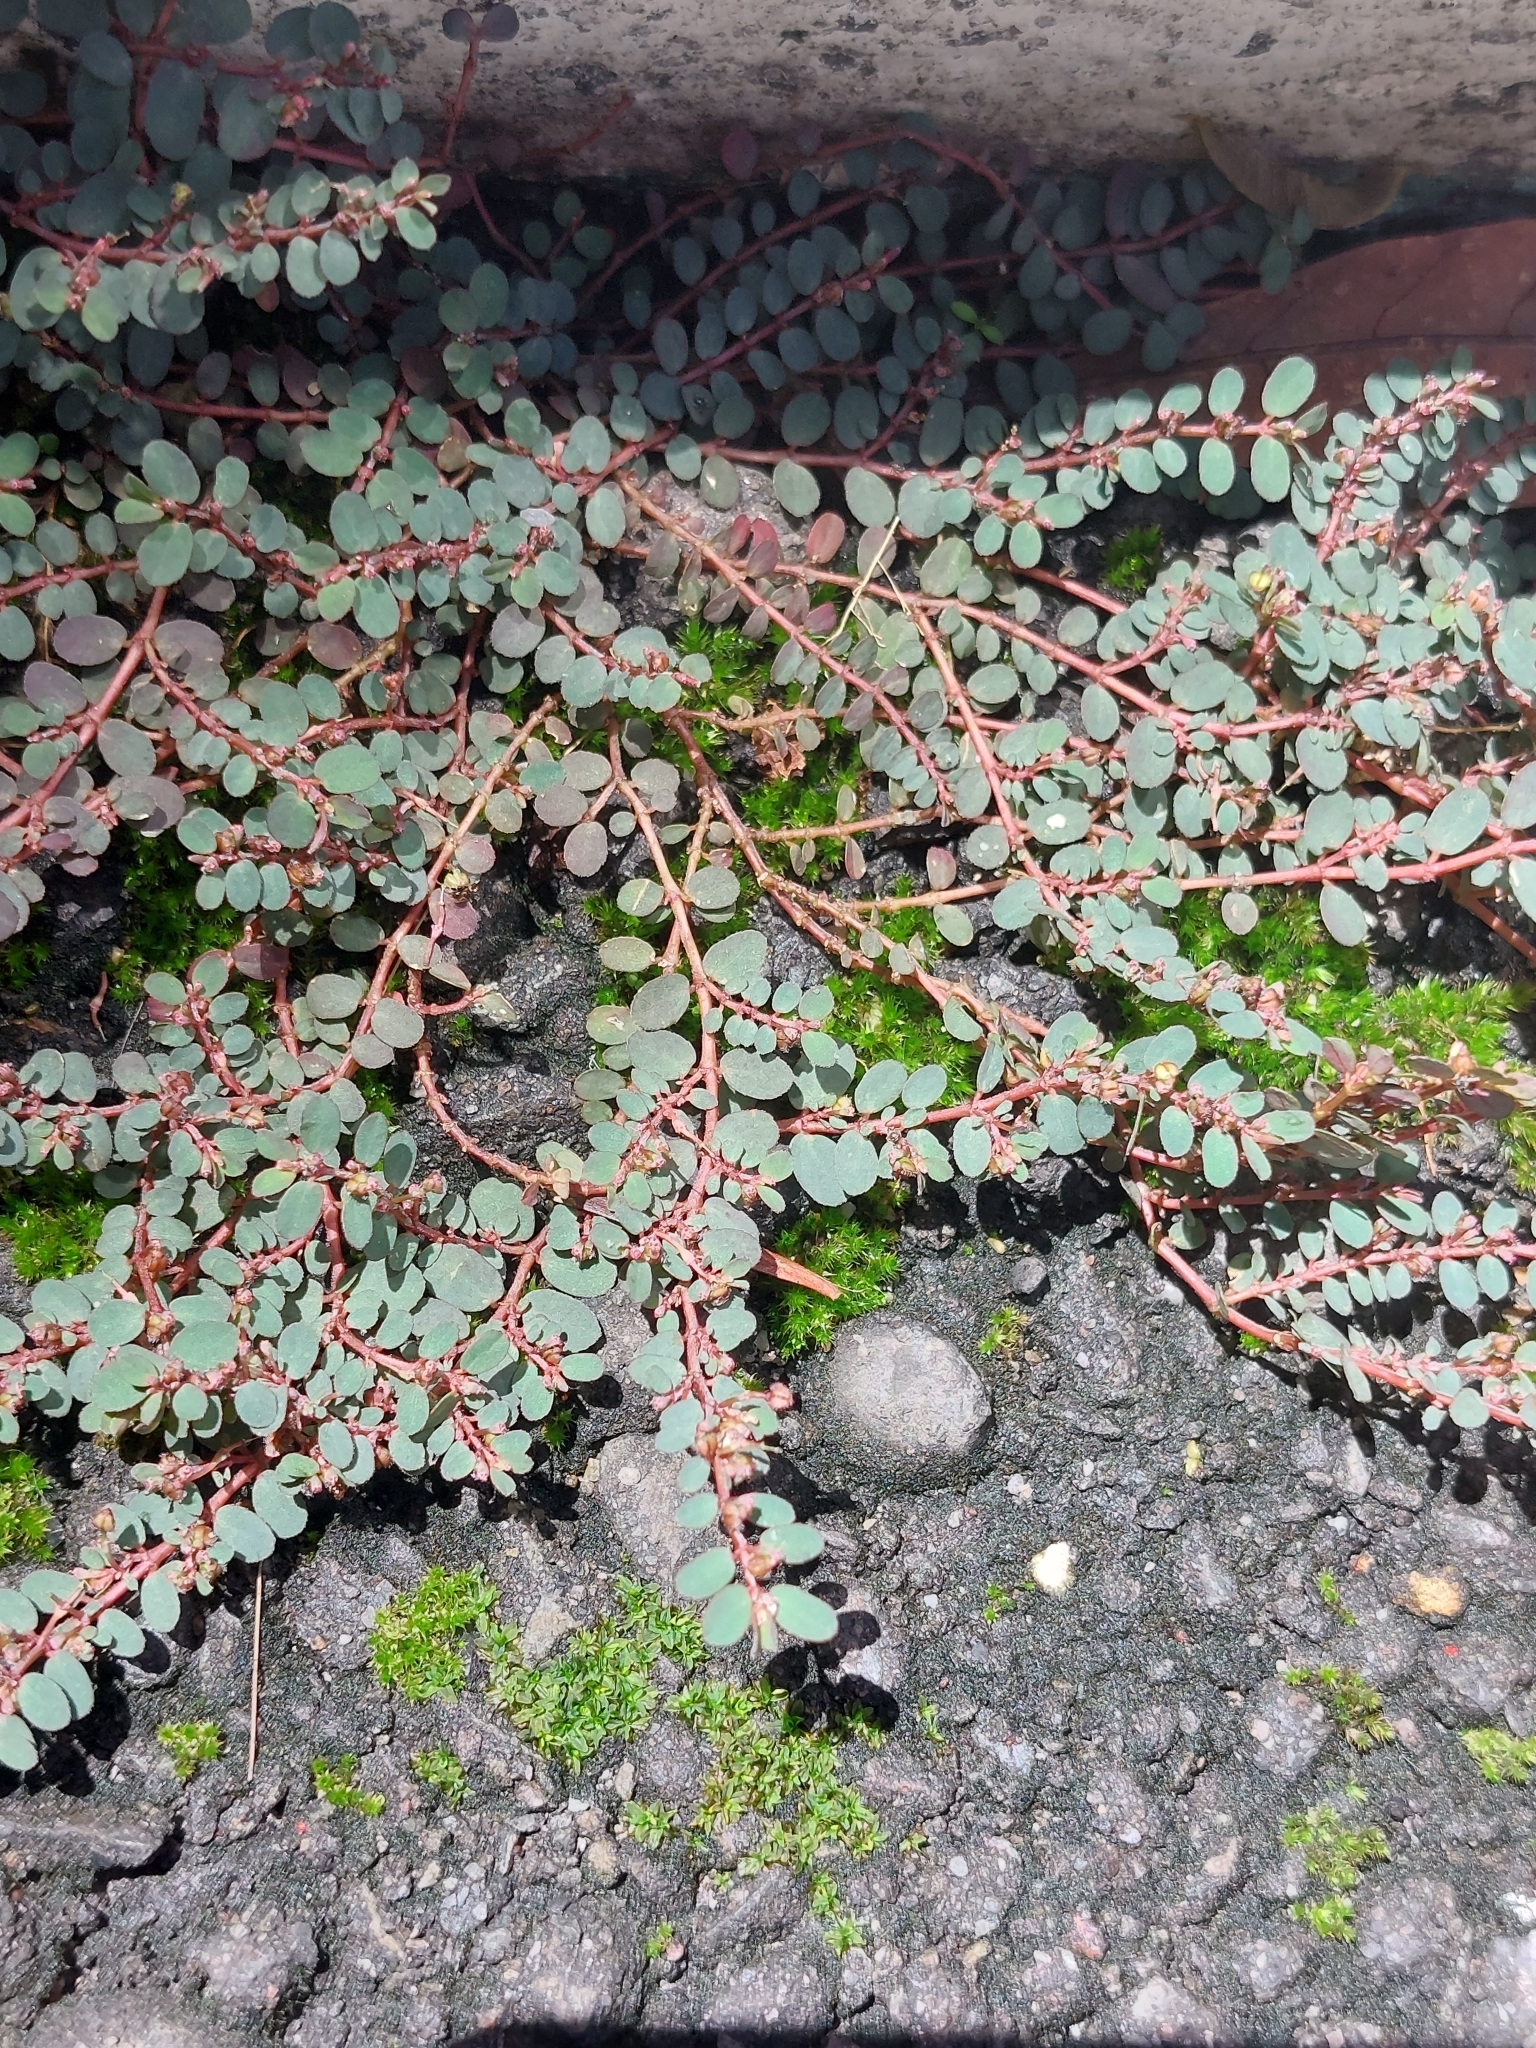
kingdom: Plantae
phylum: Tracheophyta
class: Magnoliopsida
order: Malpighiales
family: Euphorbiaceae
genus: Euphorbia
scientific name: Euphorbia prostrata
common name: Prostrate sandmat
